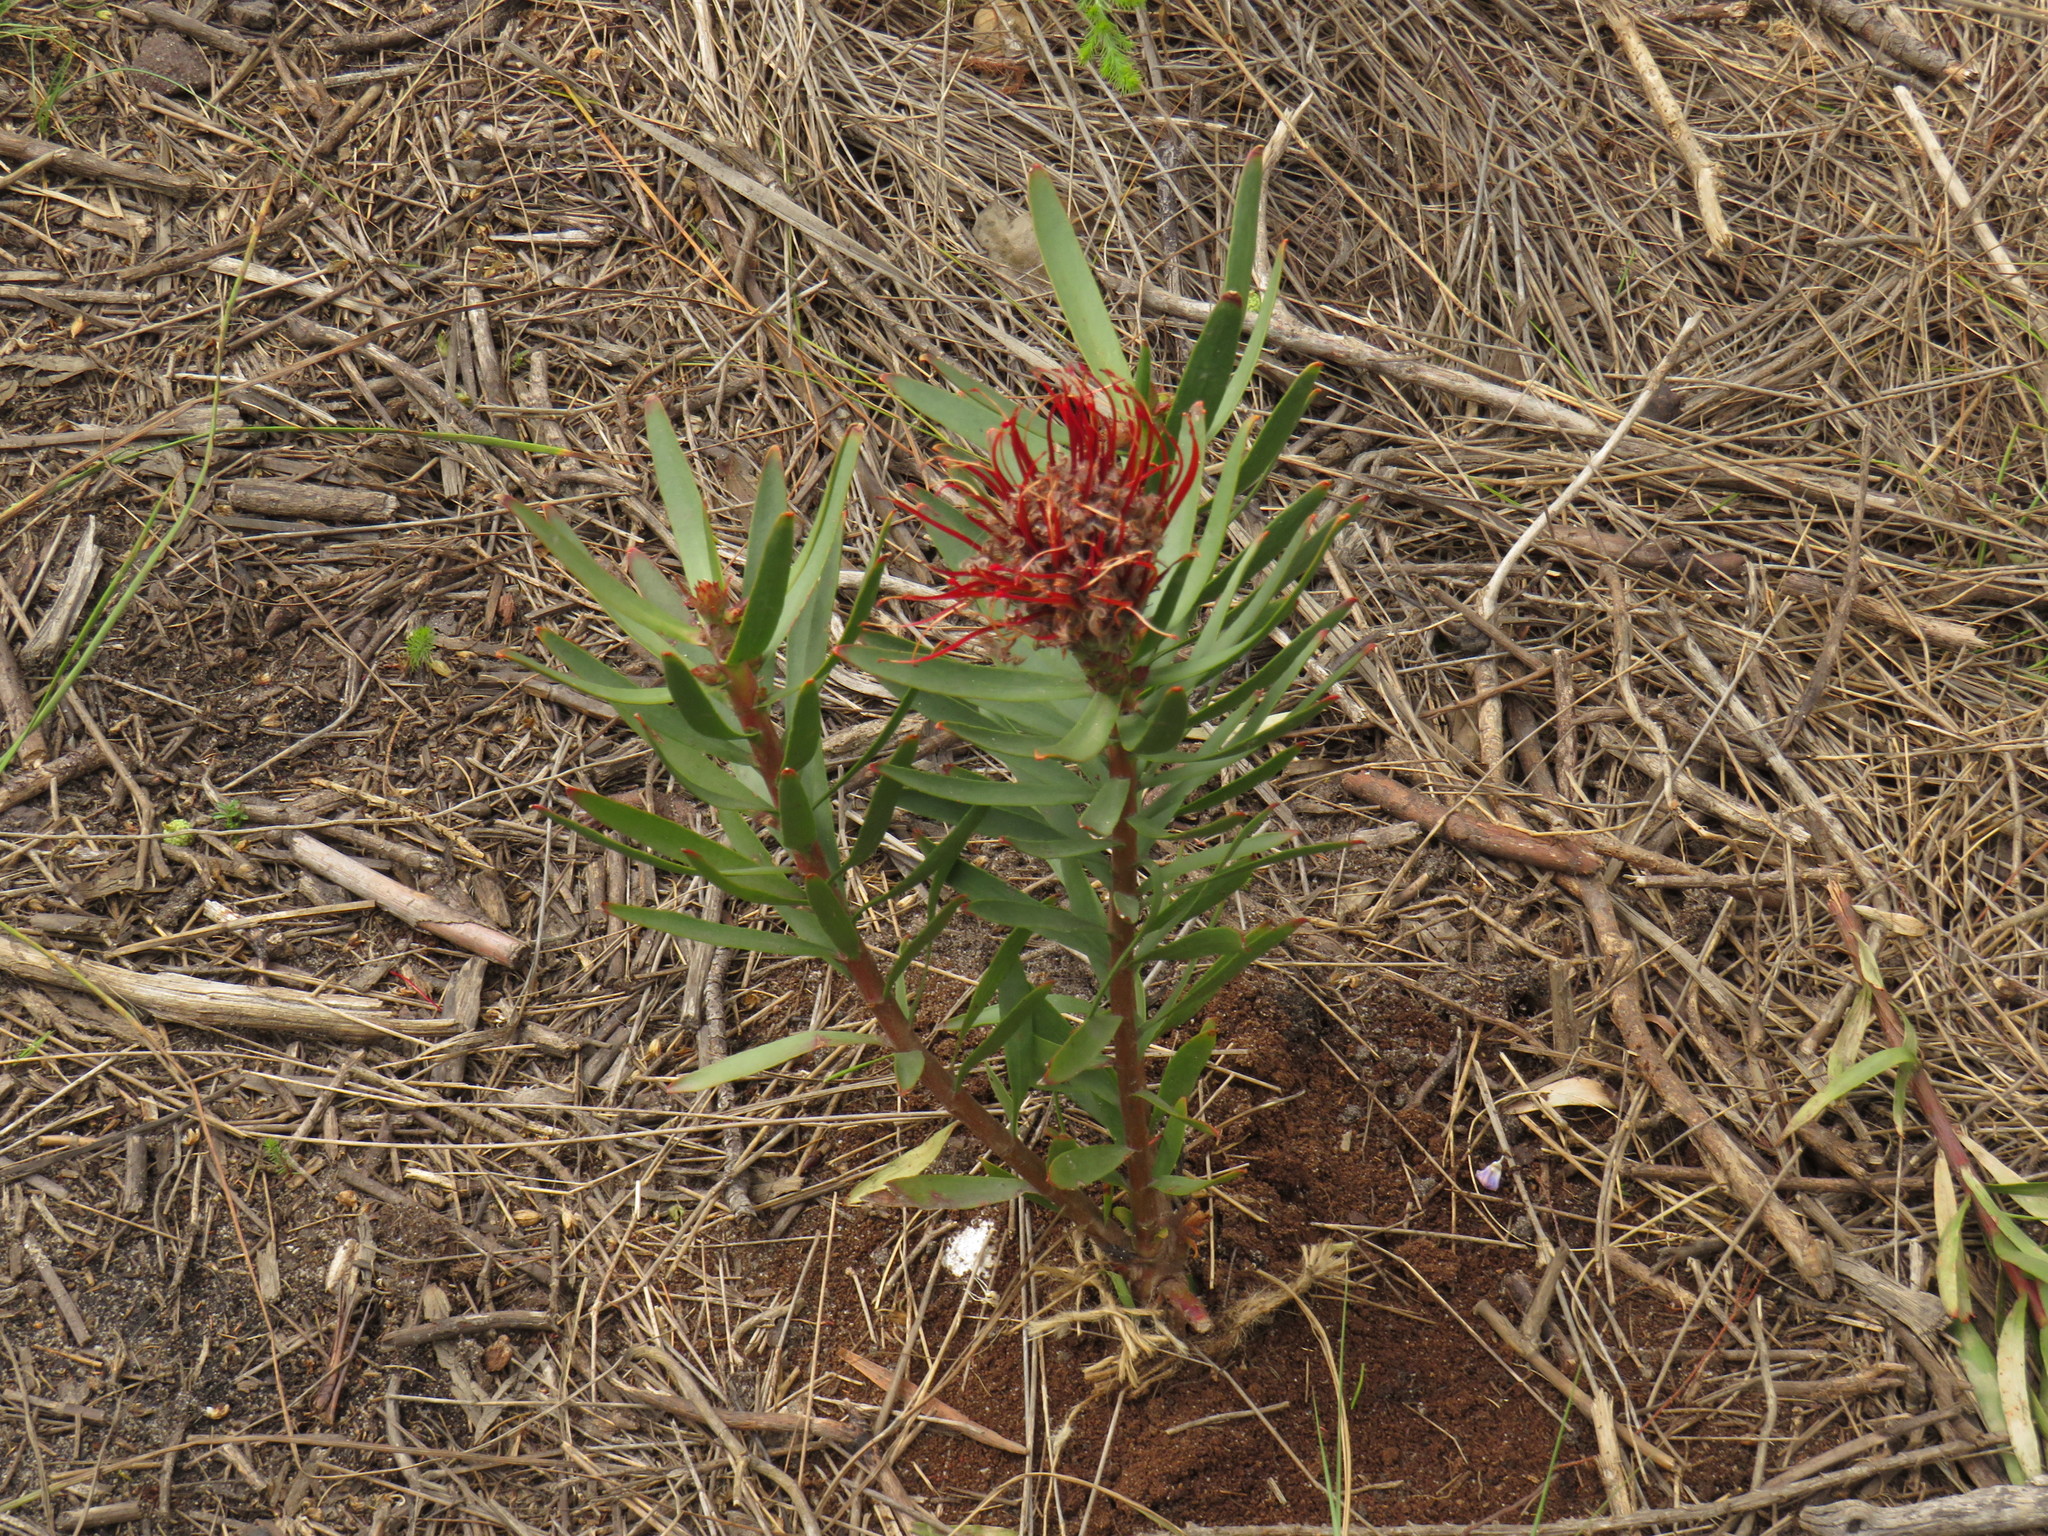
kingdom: Plantae
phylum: Tracheophyta
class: Magnoliopsida
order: Proteales
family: Proteaceae
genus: Leucospermum
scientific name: Leucospermum
